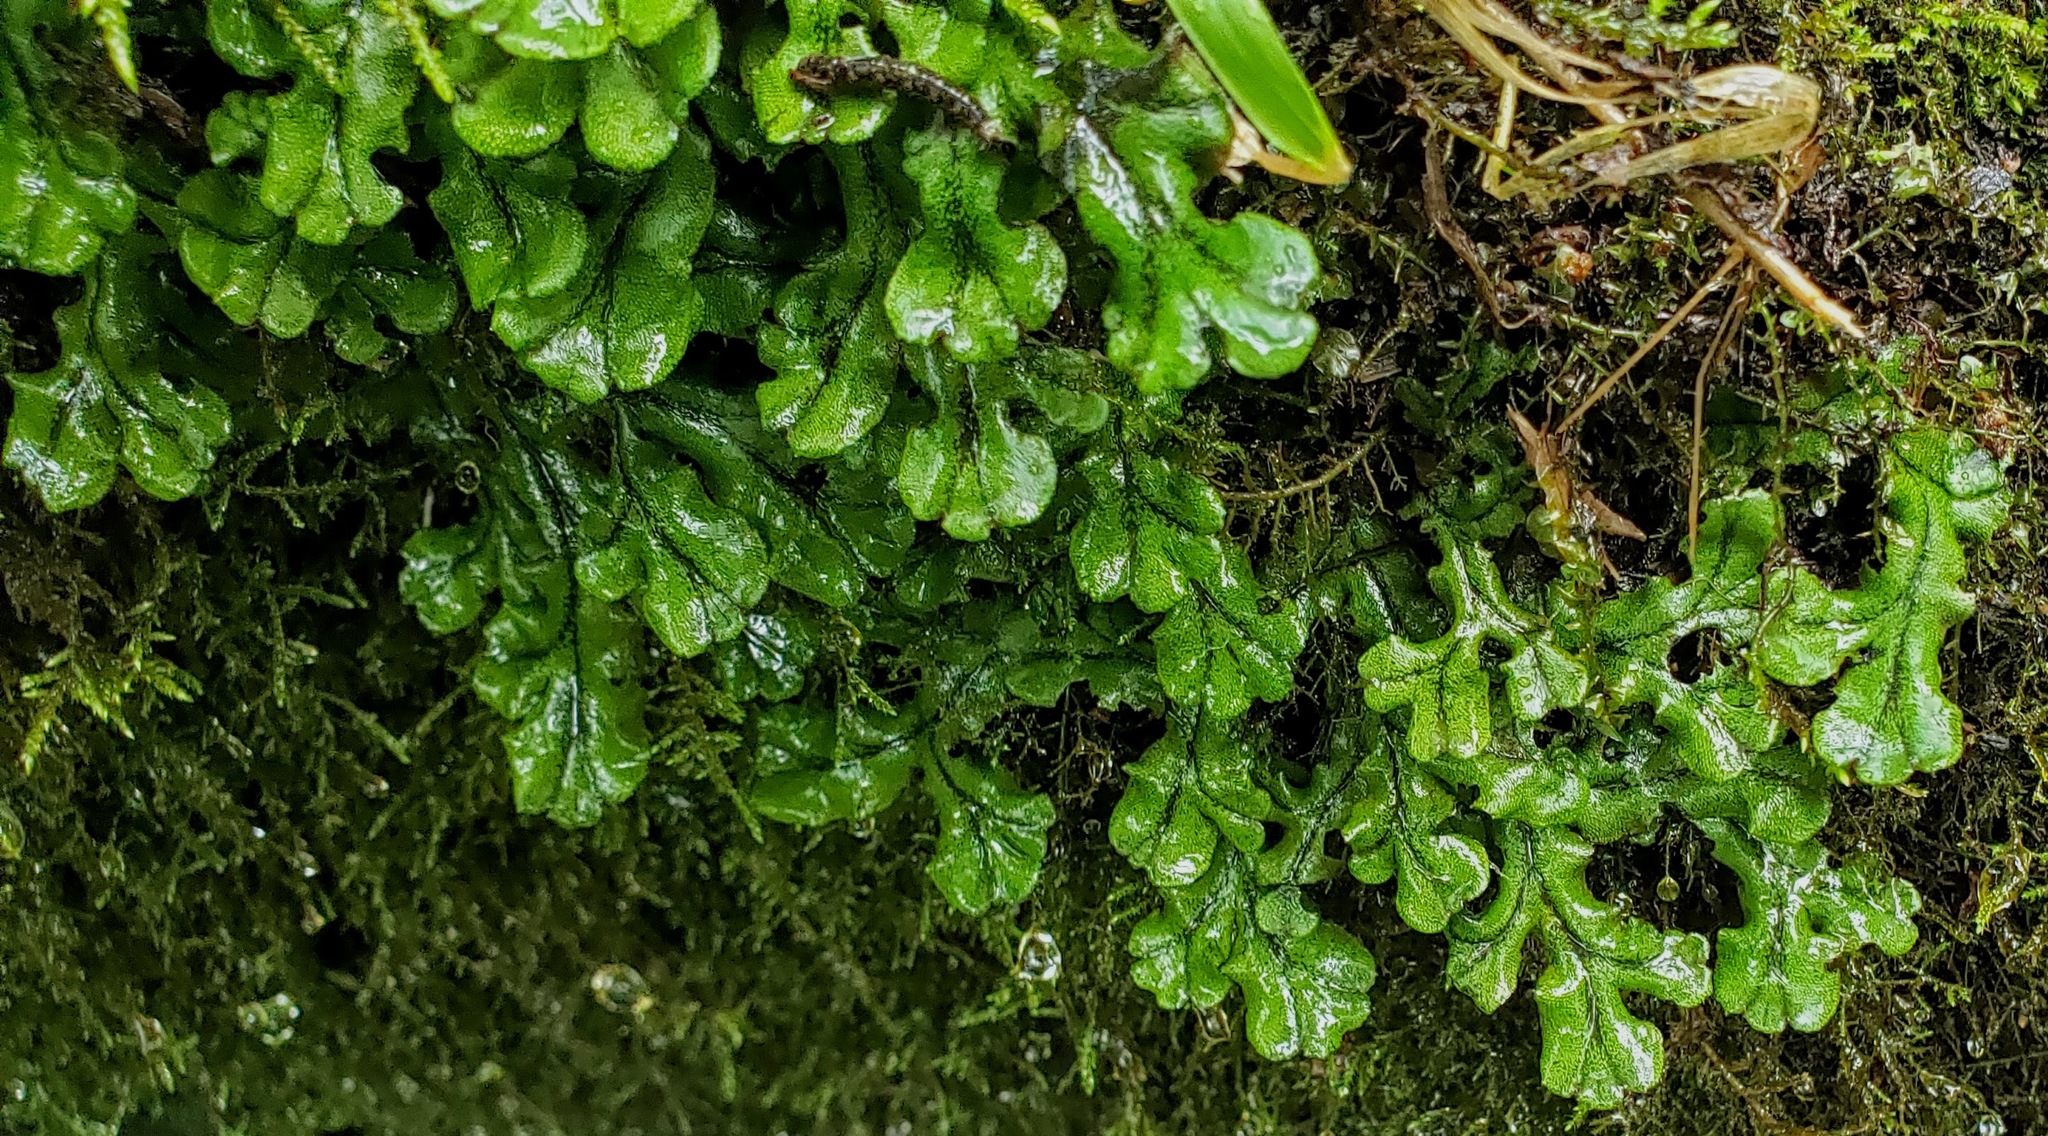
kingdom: Plantae
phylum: Marchantiophyta
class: Marchantiopsida
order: Marchantiales
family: Marchantiaceae
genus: Marchantia
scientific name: Marchantia polymorpha
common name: Common liverwort
